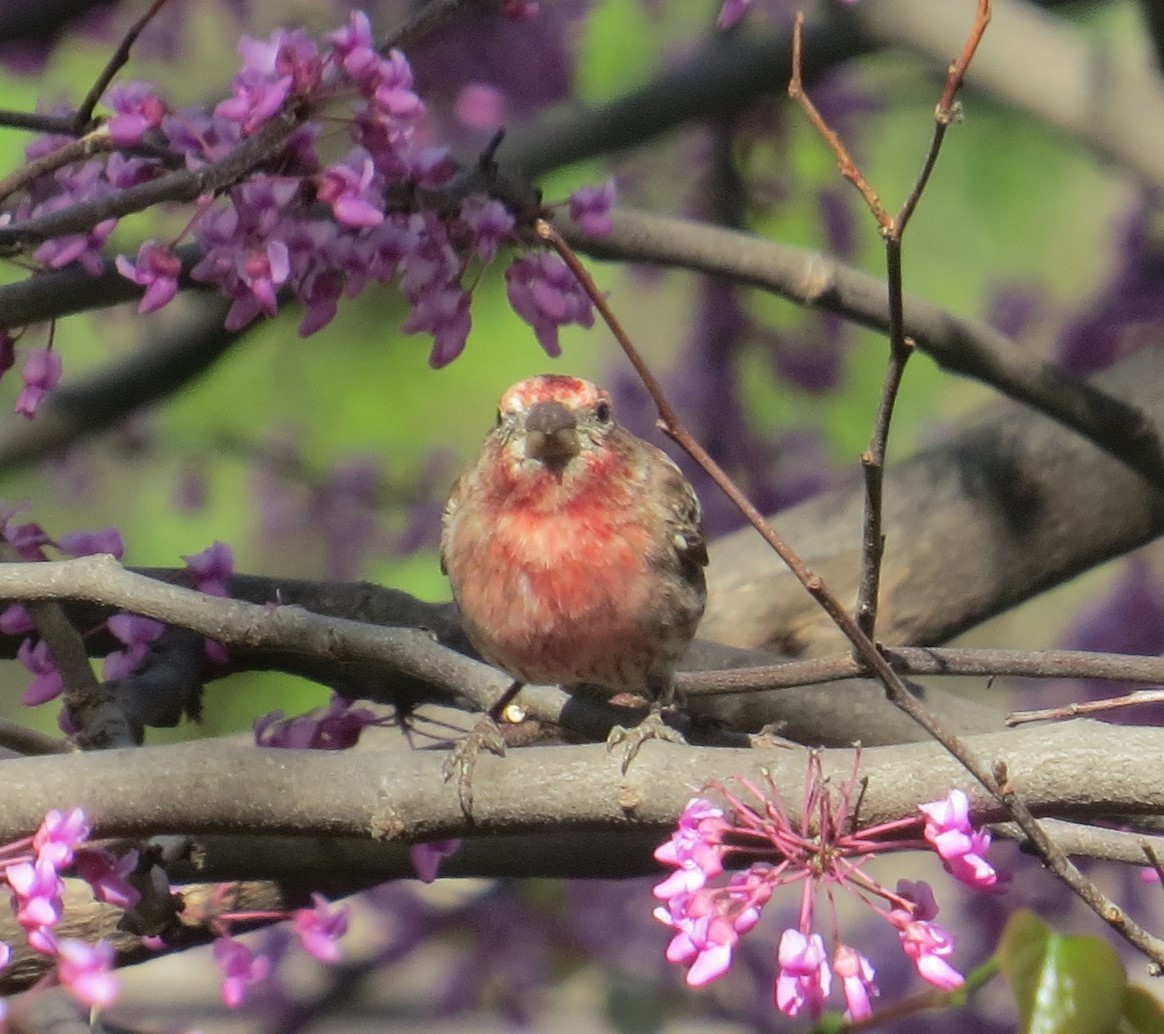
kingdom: Animalia
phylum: Chordata
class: Aves
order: Passeriformes
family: Fringillidae
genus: Haemorhous
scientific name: Haemorhous mexicanus
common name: House finch
